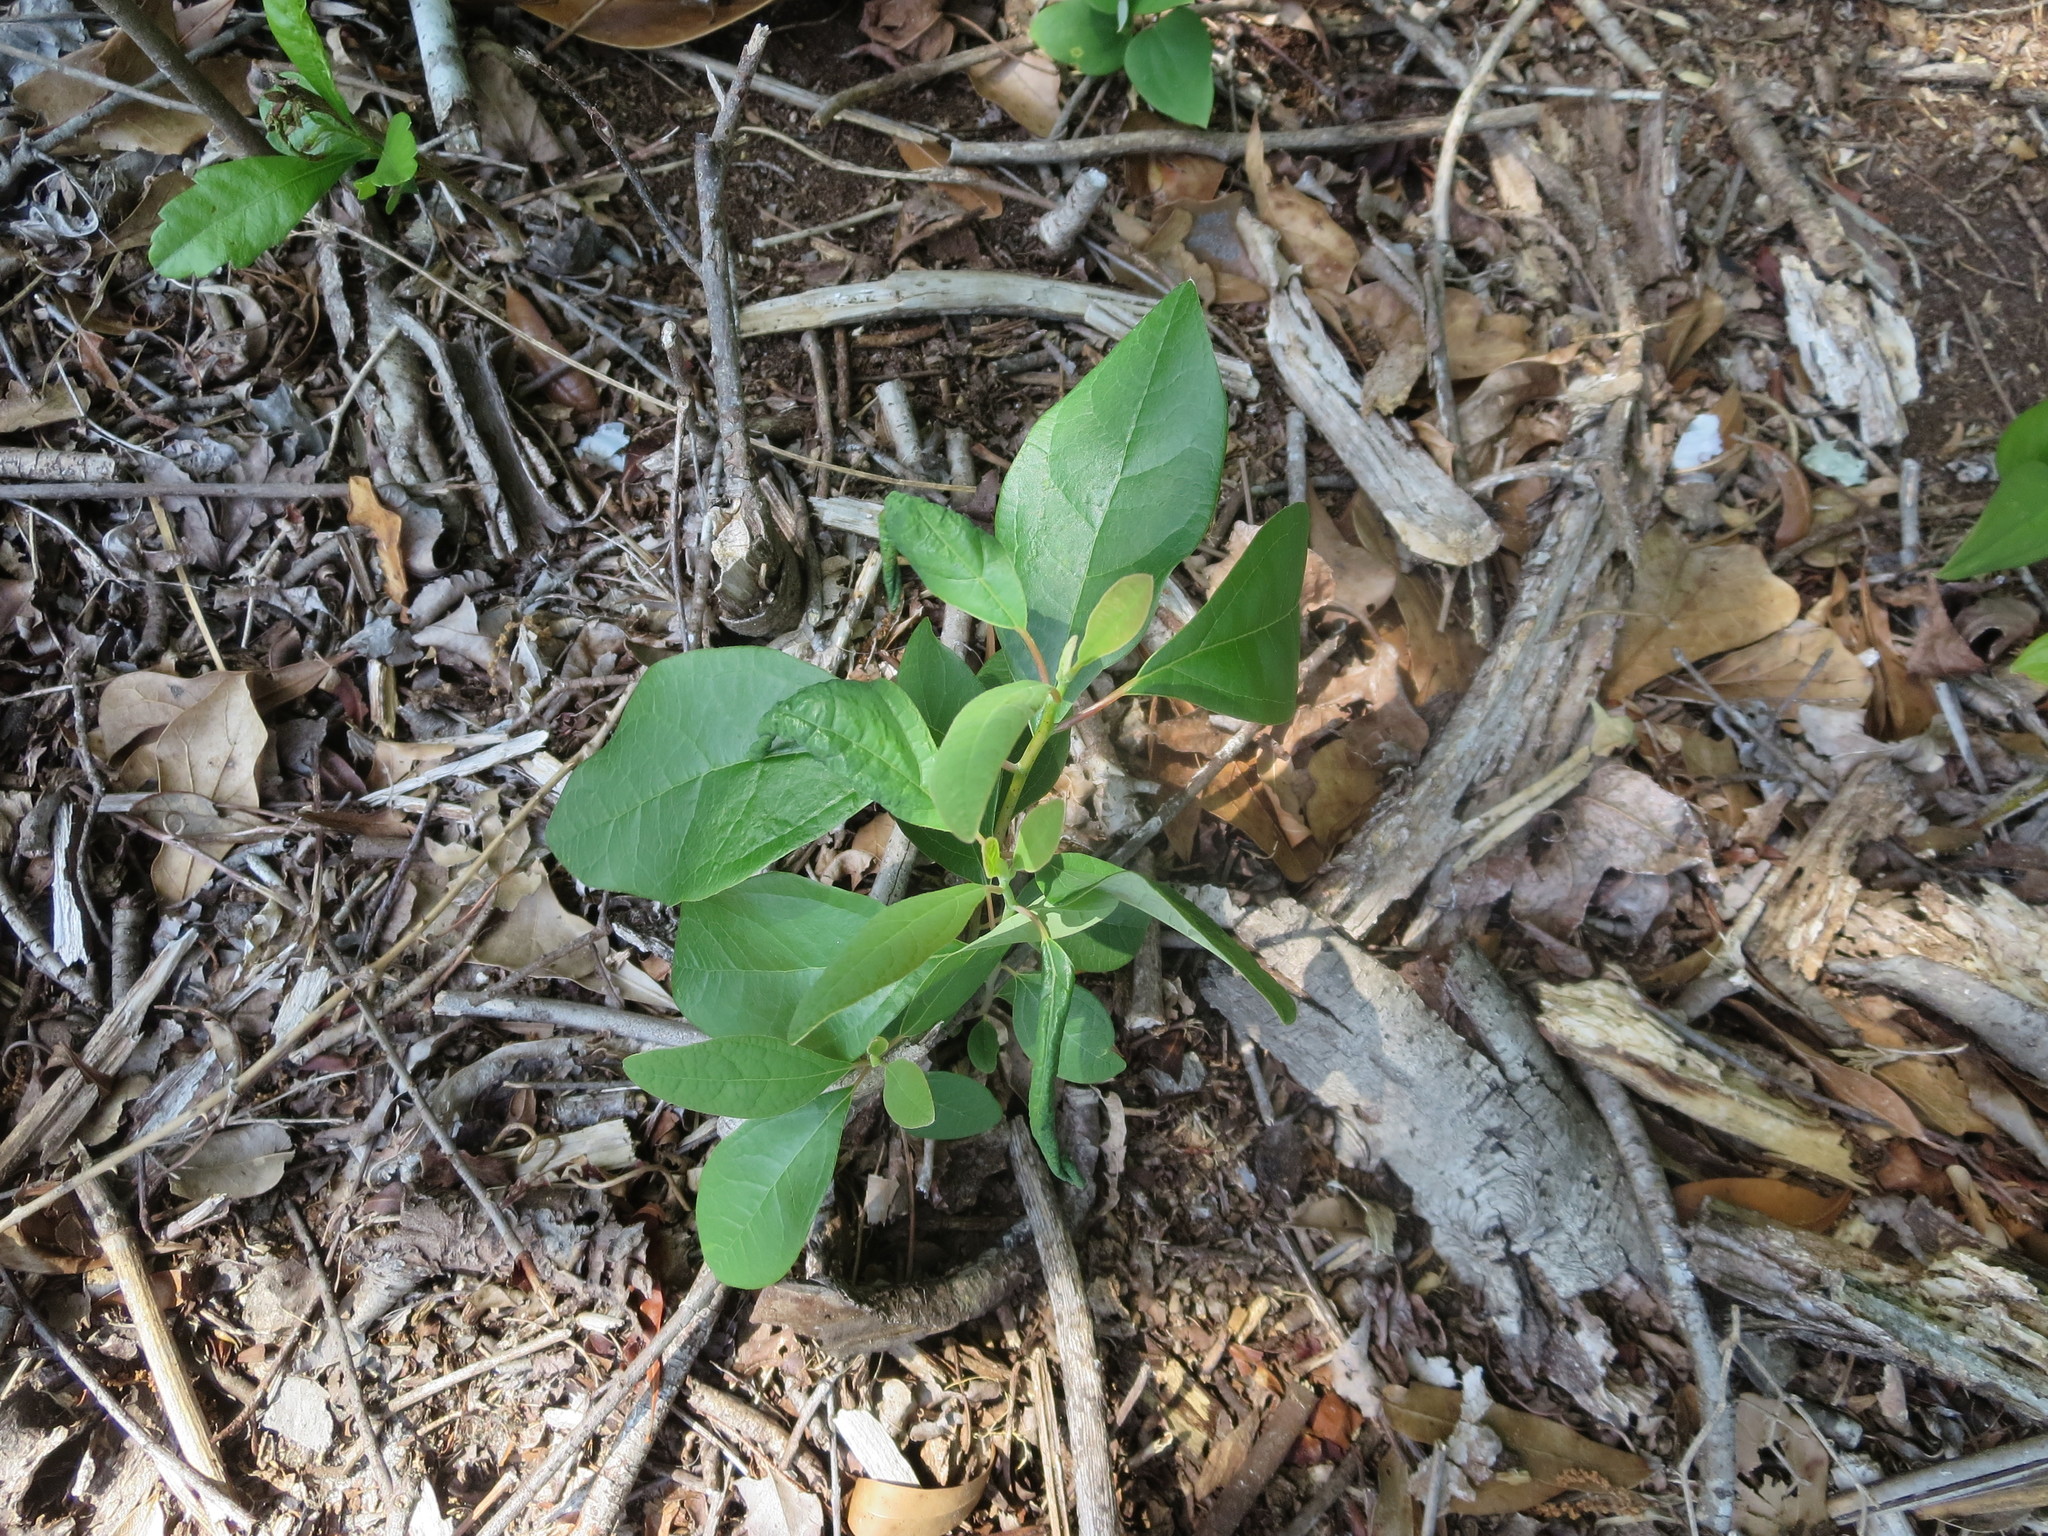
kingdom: Plantae
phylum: Tracheophyta
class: Magnoliopsida
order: Laurales
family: Lauraceae
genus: Sassafras
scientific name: Sassafras albidum
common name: Sassafras
